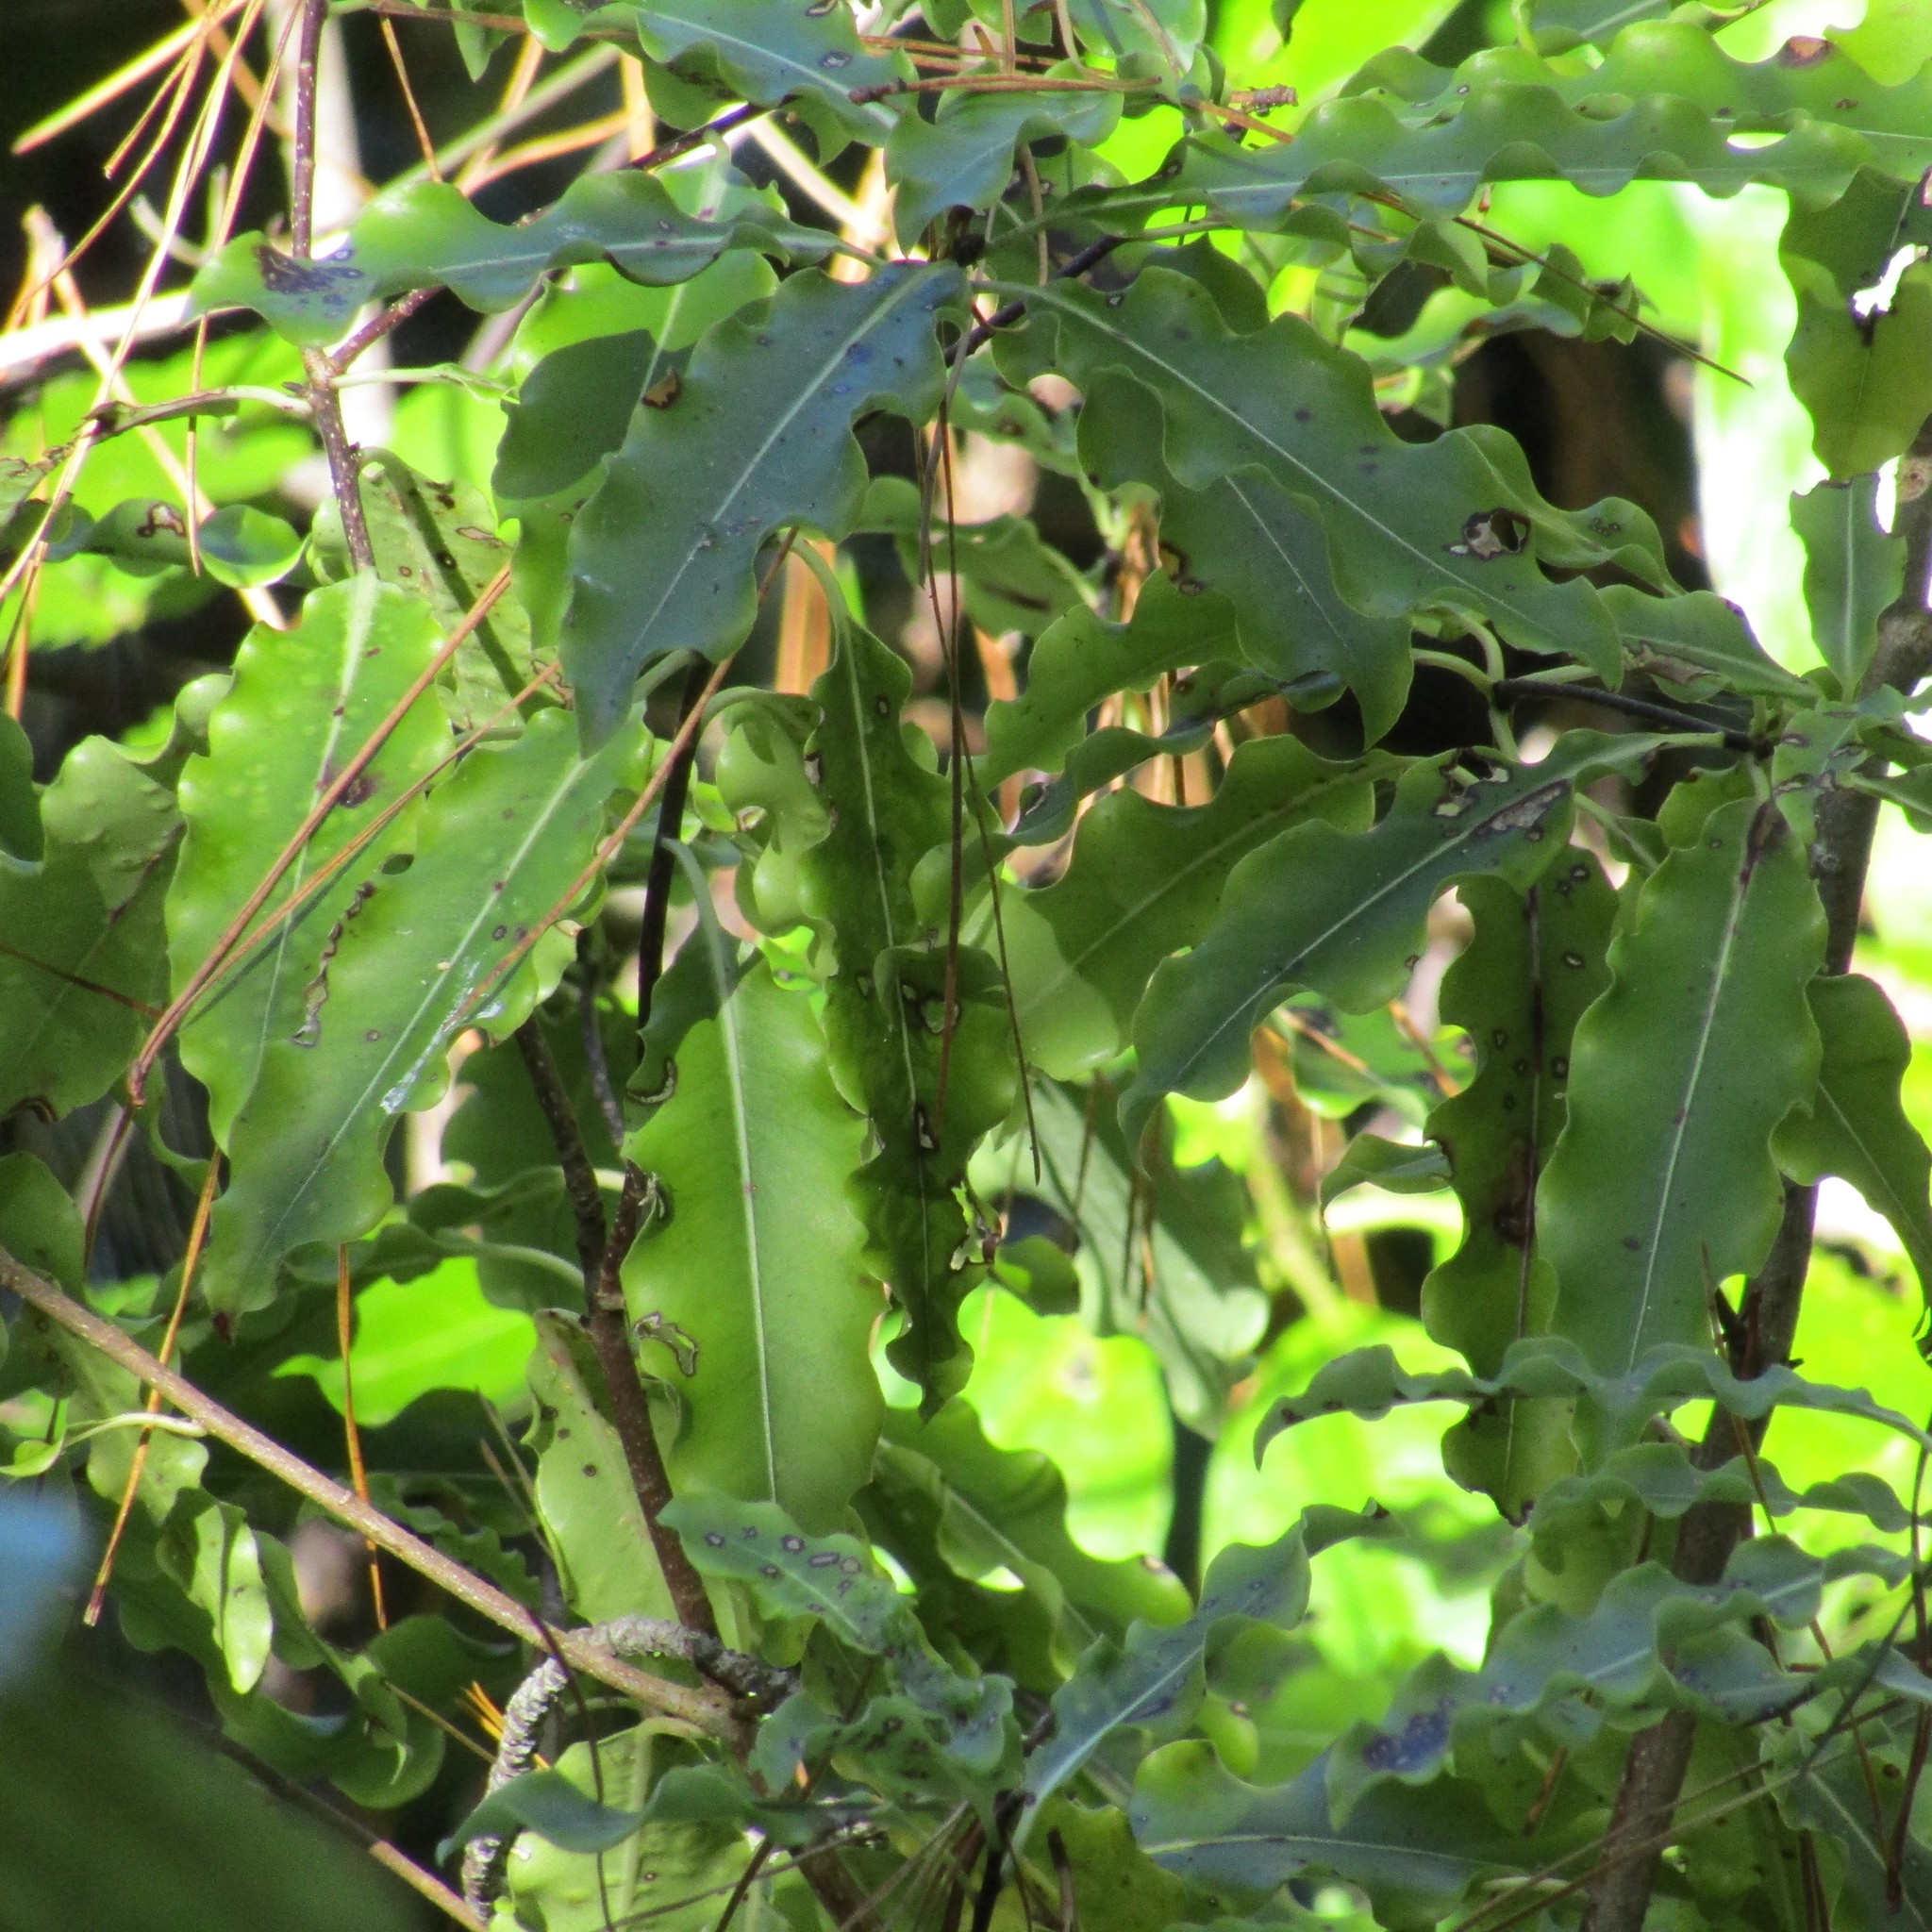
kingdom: Plantae
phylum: Tracheophyta
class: Magnoliopsida
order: Apiales
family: Pittosporaceae
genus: Pittosporum
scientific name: Pittosporum eugenioides
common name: Lemonwood
